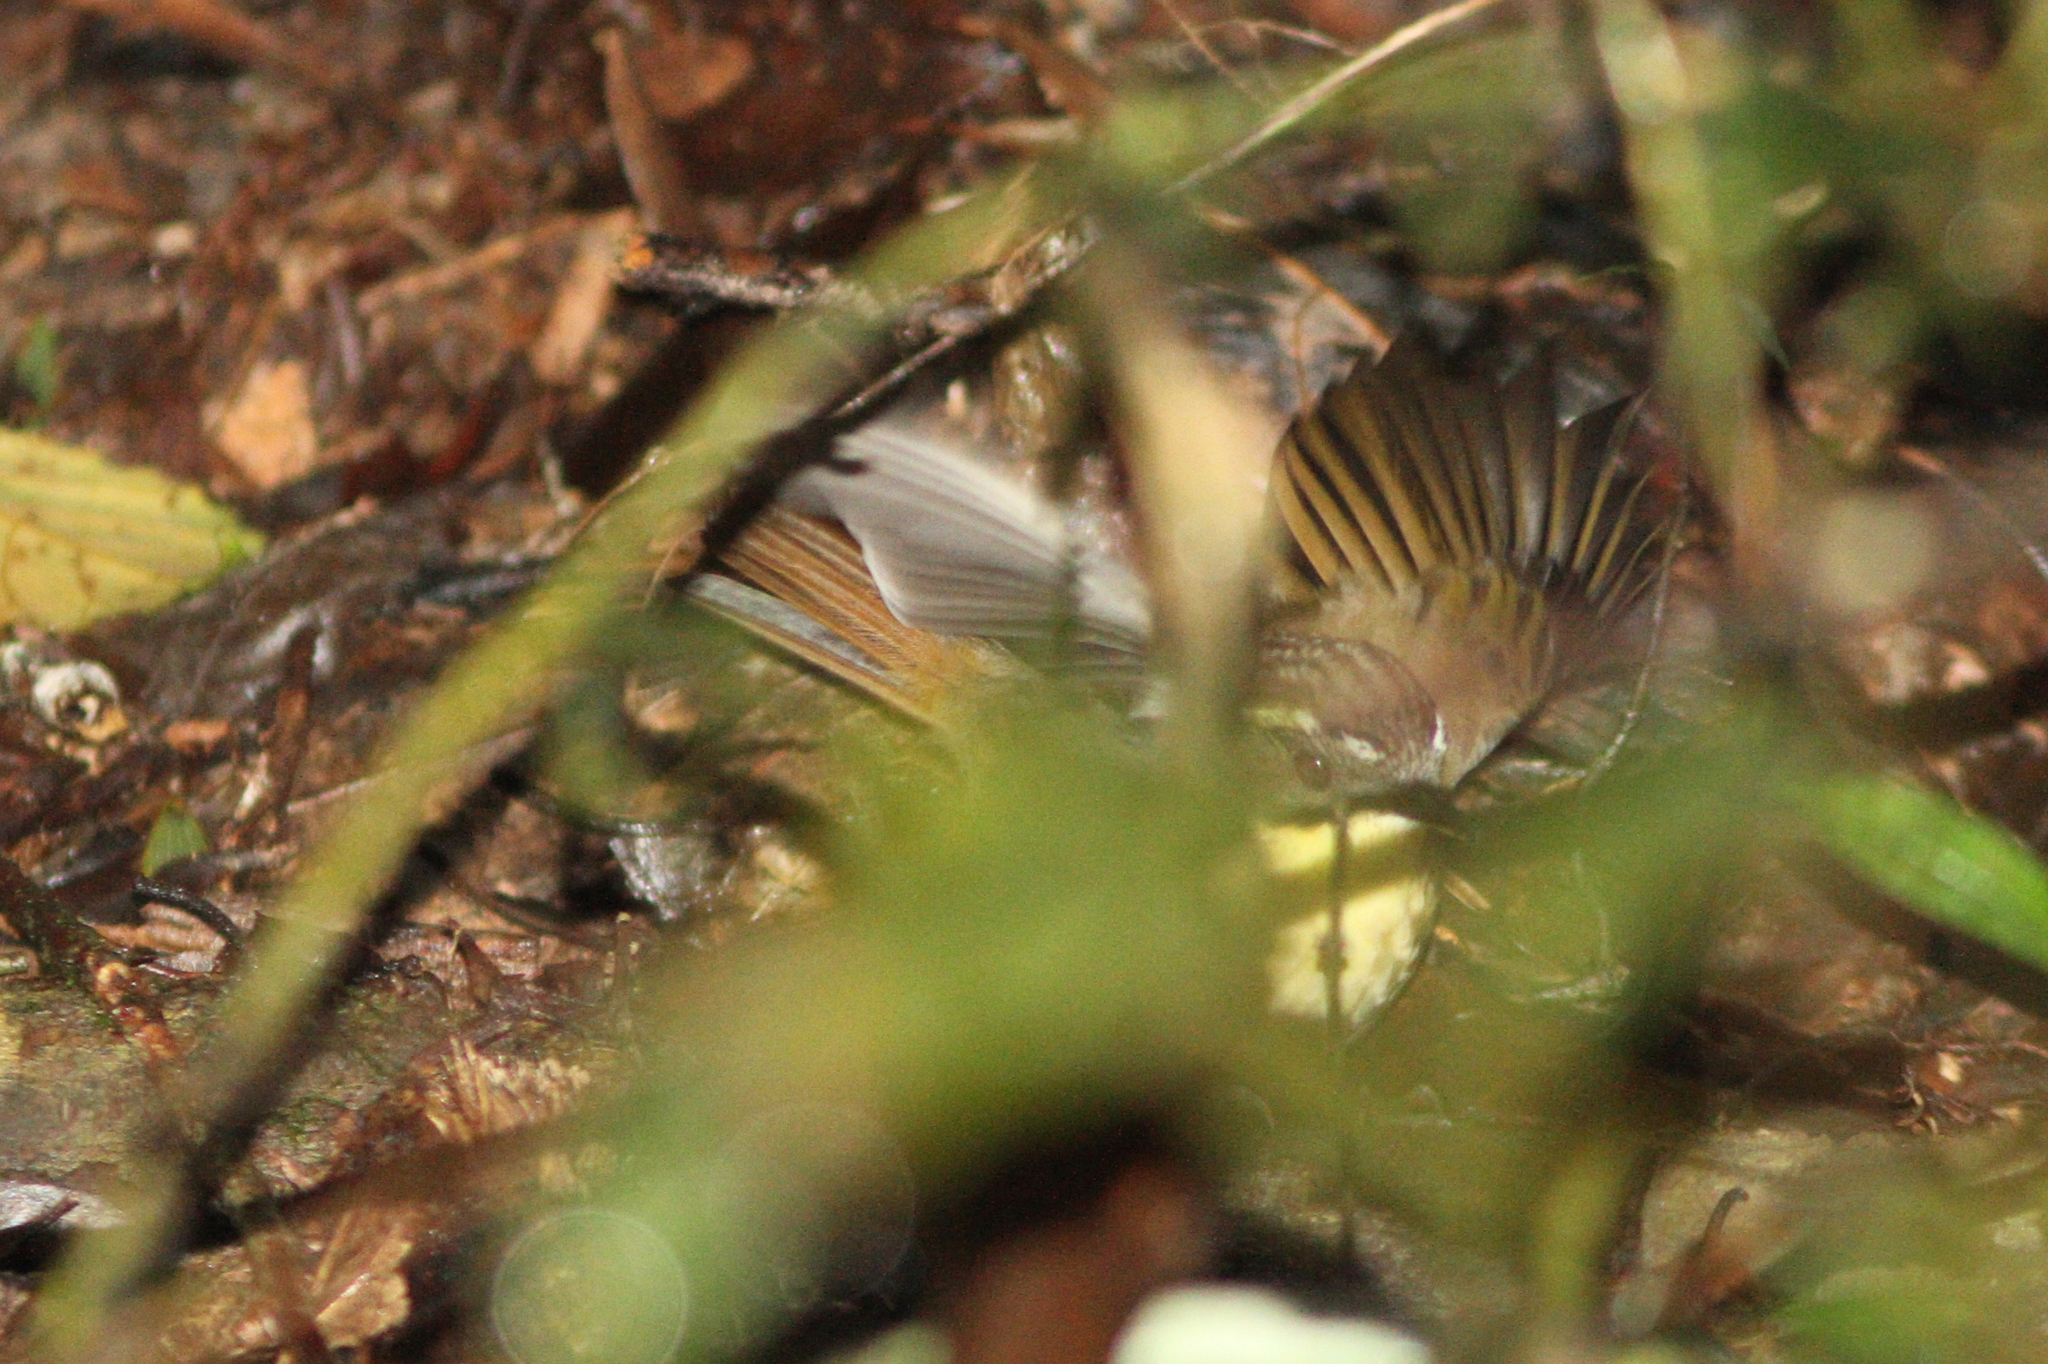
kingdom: Animalia
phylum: Chordata
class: Aves
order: Passeriformes
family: Acanthizidae
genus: Sericornis
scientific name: Sericornis citreogularis
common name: Yellow-throated scrubwren
